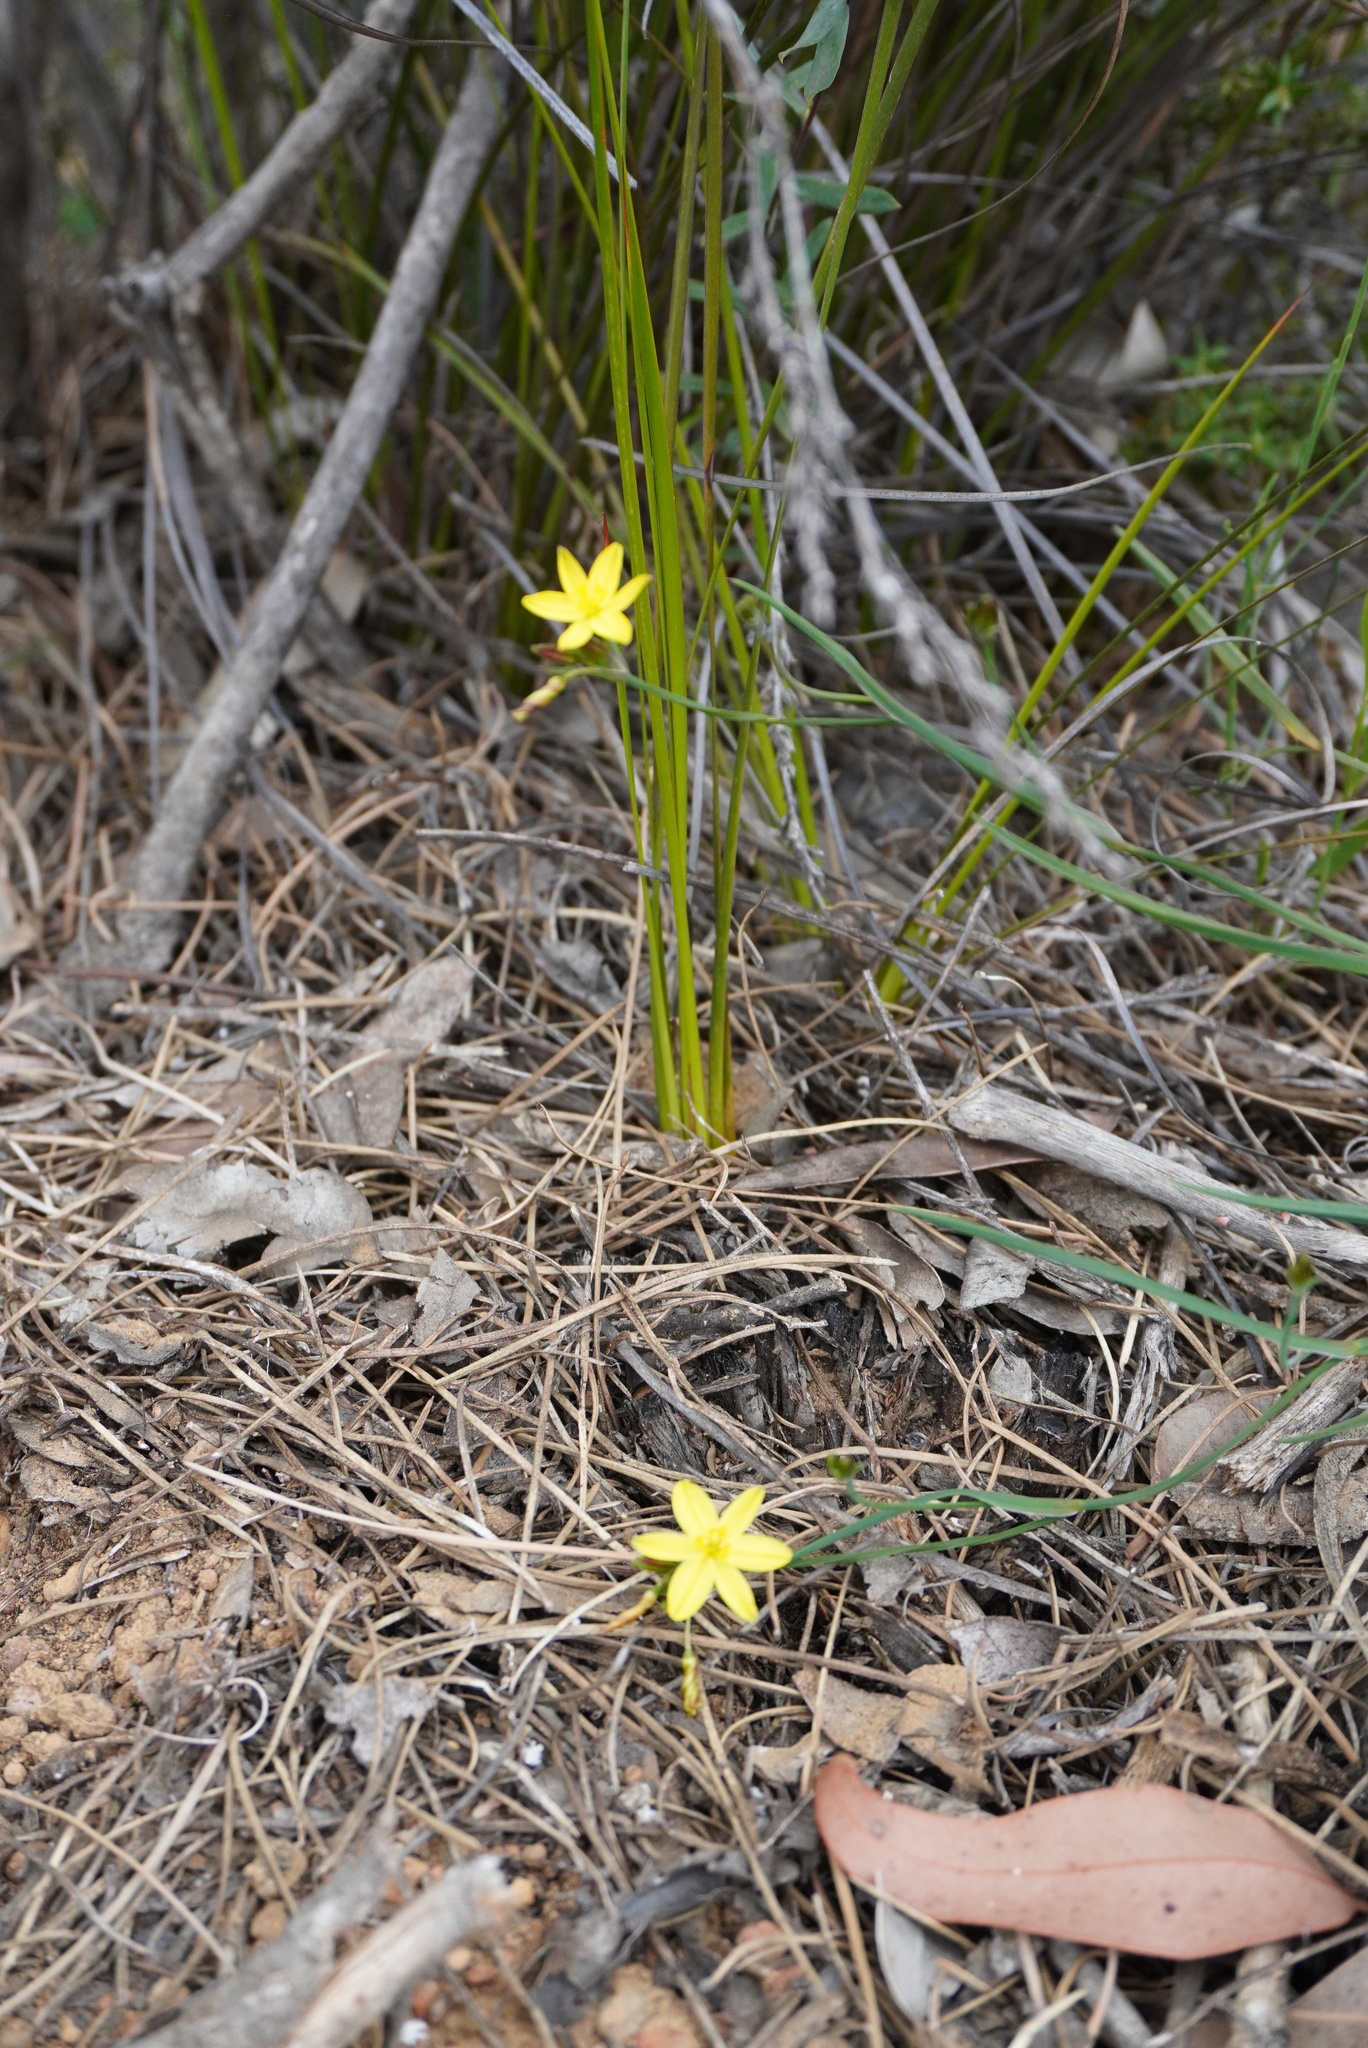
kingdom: Plantae
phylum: Tracheophyta
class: Liliopsida
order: Asparagales
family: Asphodelaceae
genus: Tricoryne
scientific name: Tricoryne elatior
